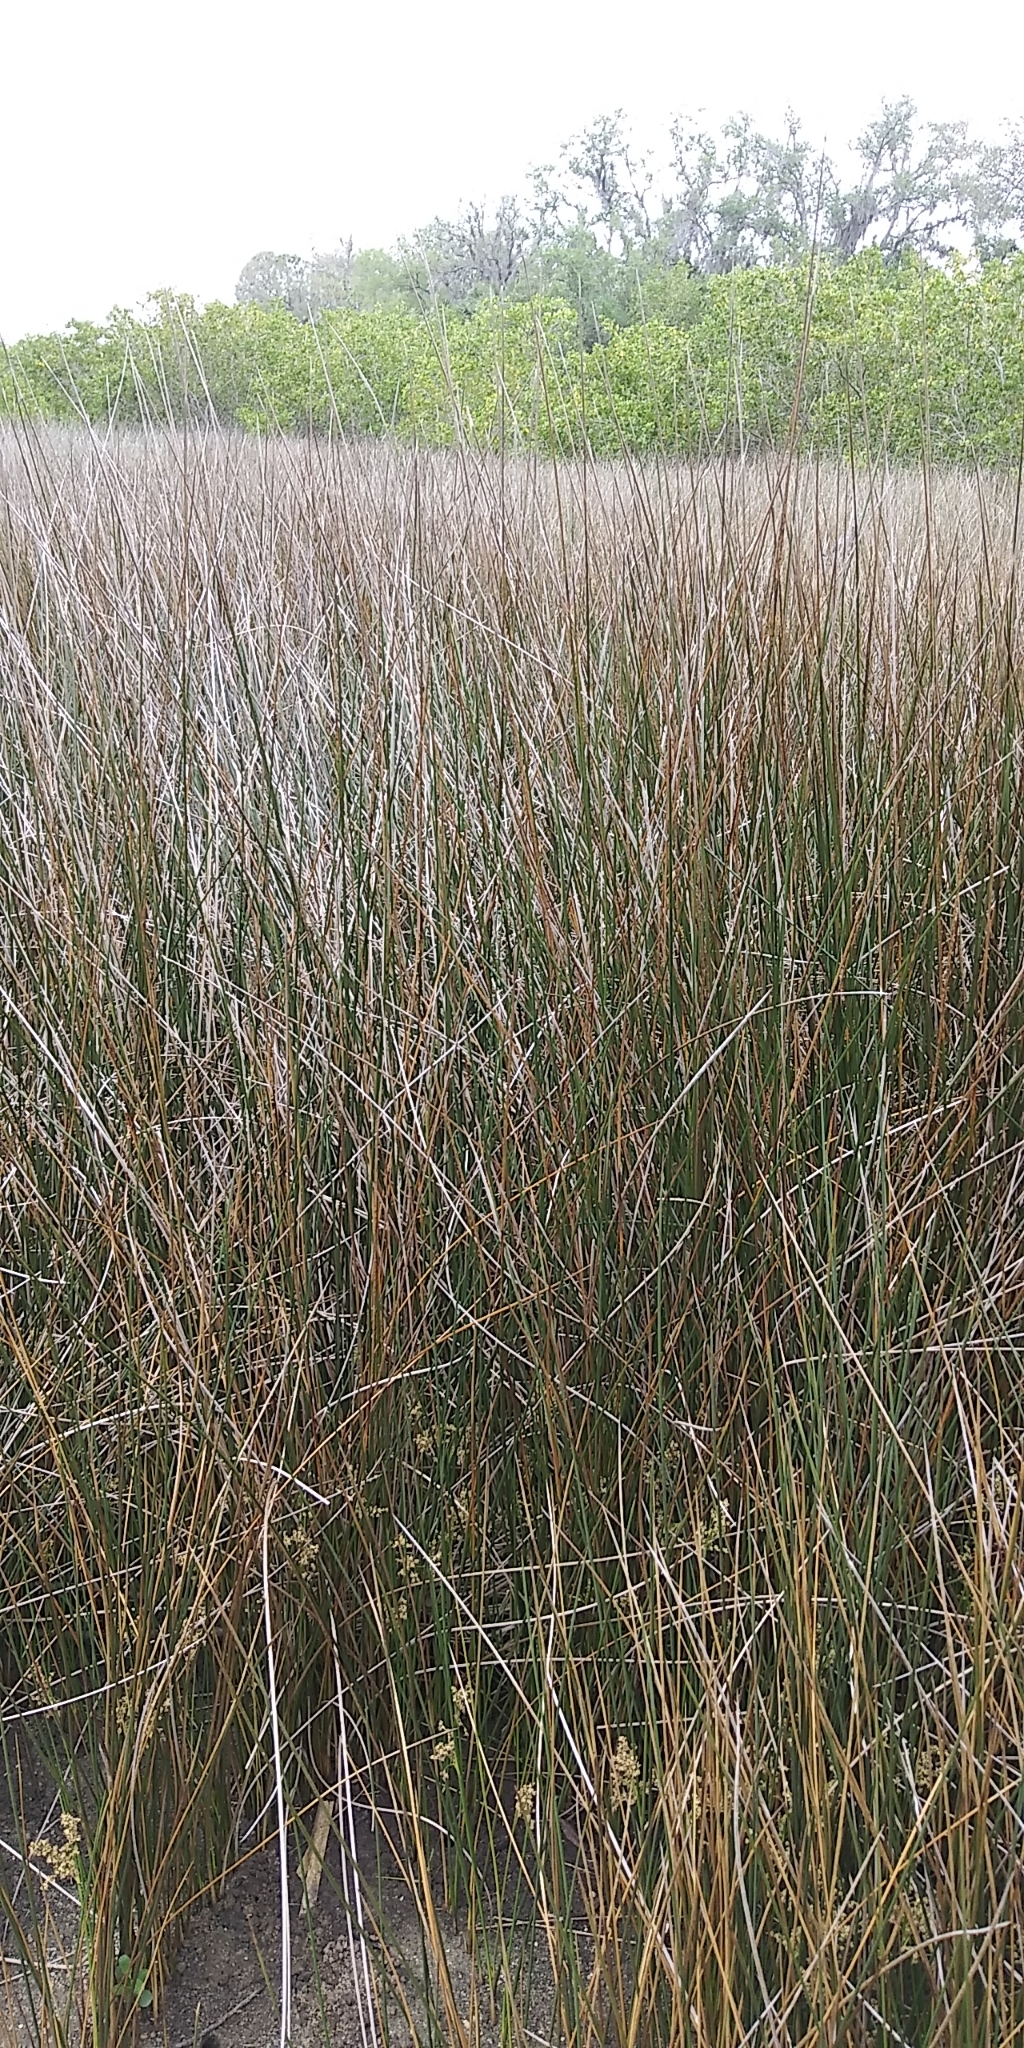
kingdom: Plantae
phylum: Tracheophyta
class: Liliopsida
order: Poales
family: Juncaceae
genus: Juncus
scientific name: Juncus roemerianus
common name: Roemer's rush
